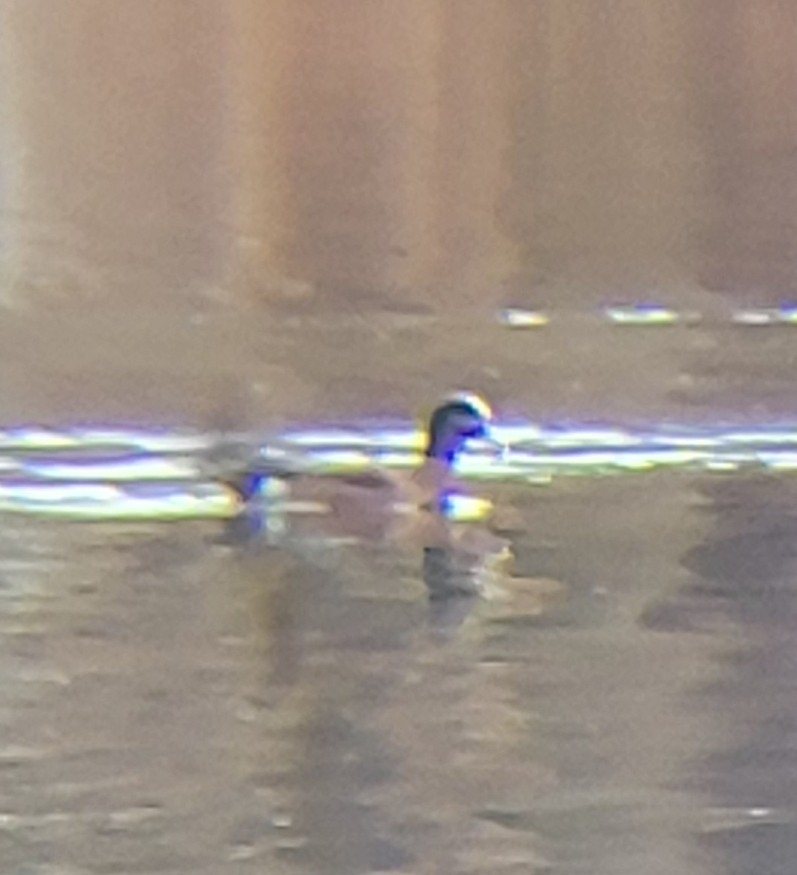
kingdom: Animalia
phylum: Chordata
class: Aves
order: Anseriformes
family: Anatidae
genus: Mareca
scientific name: Mareca americana
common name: American wigeon
